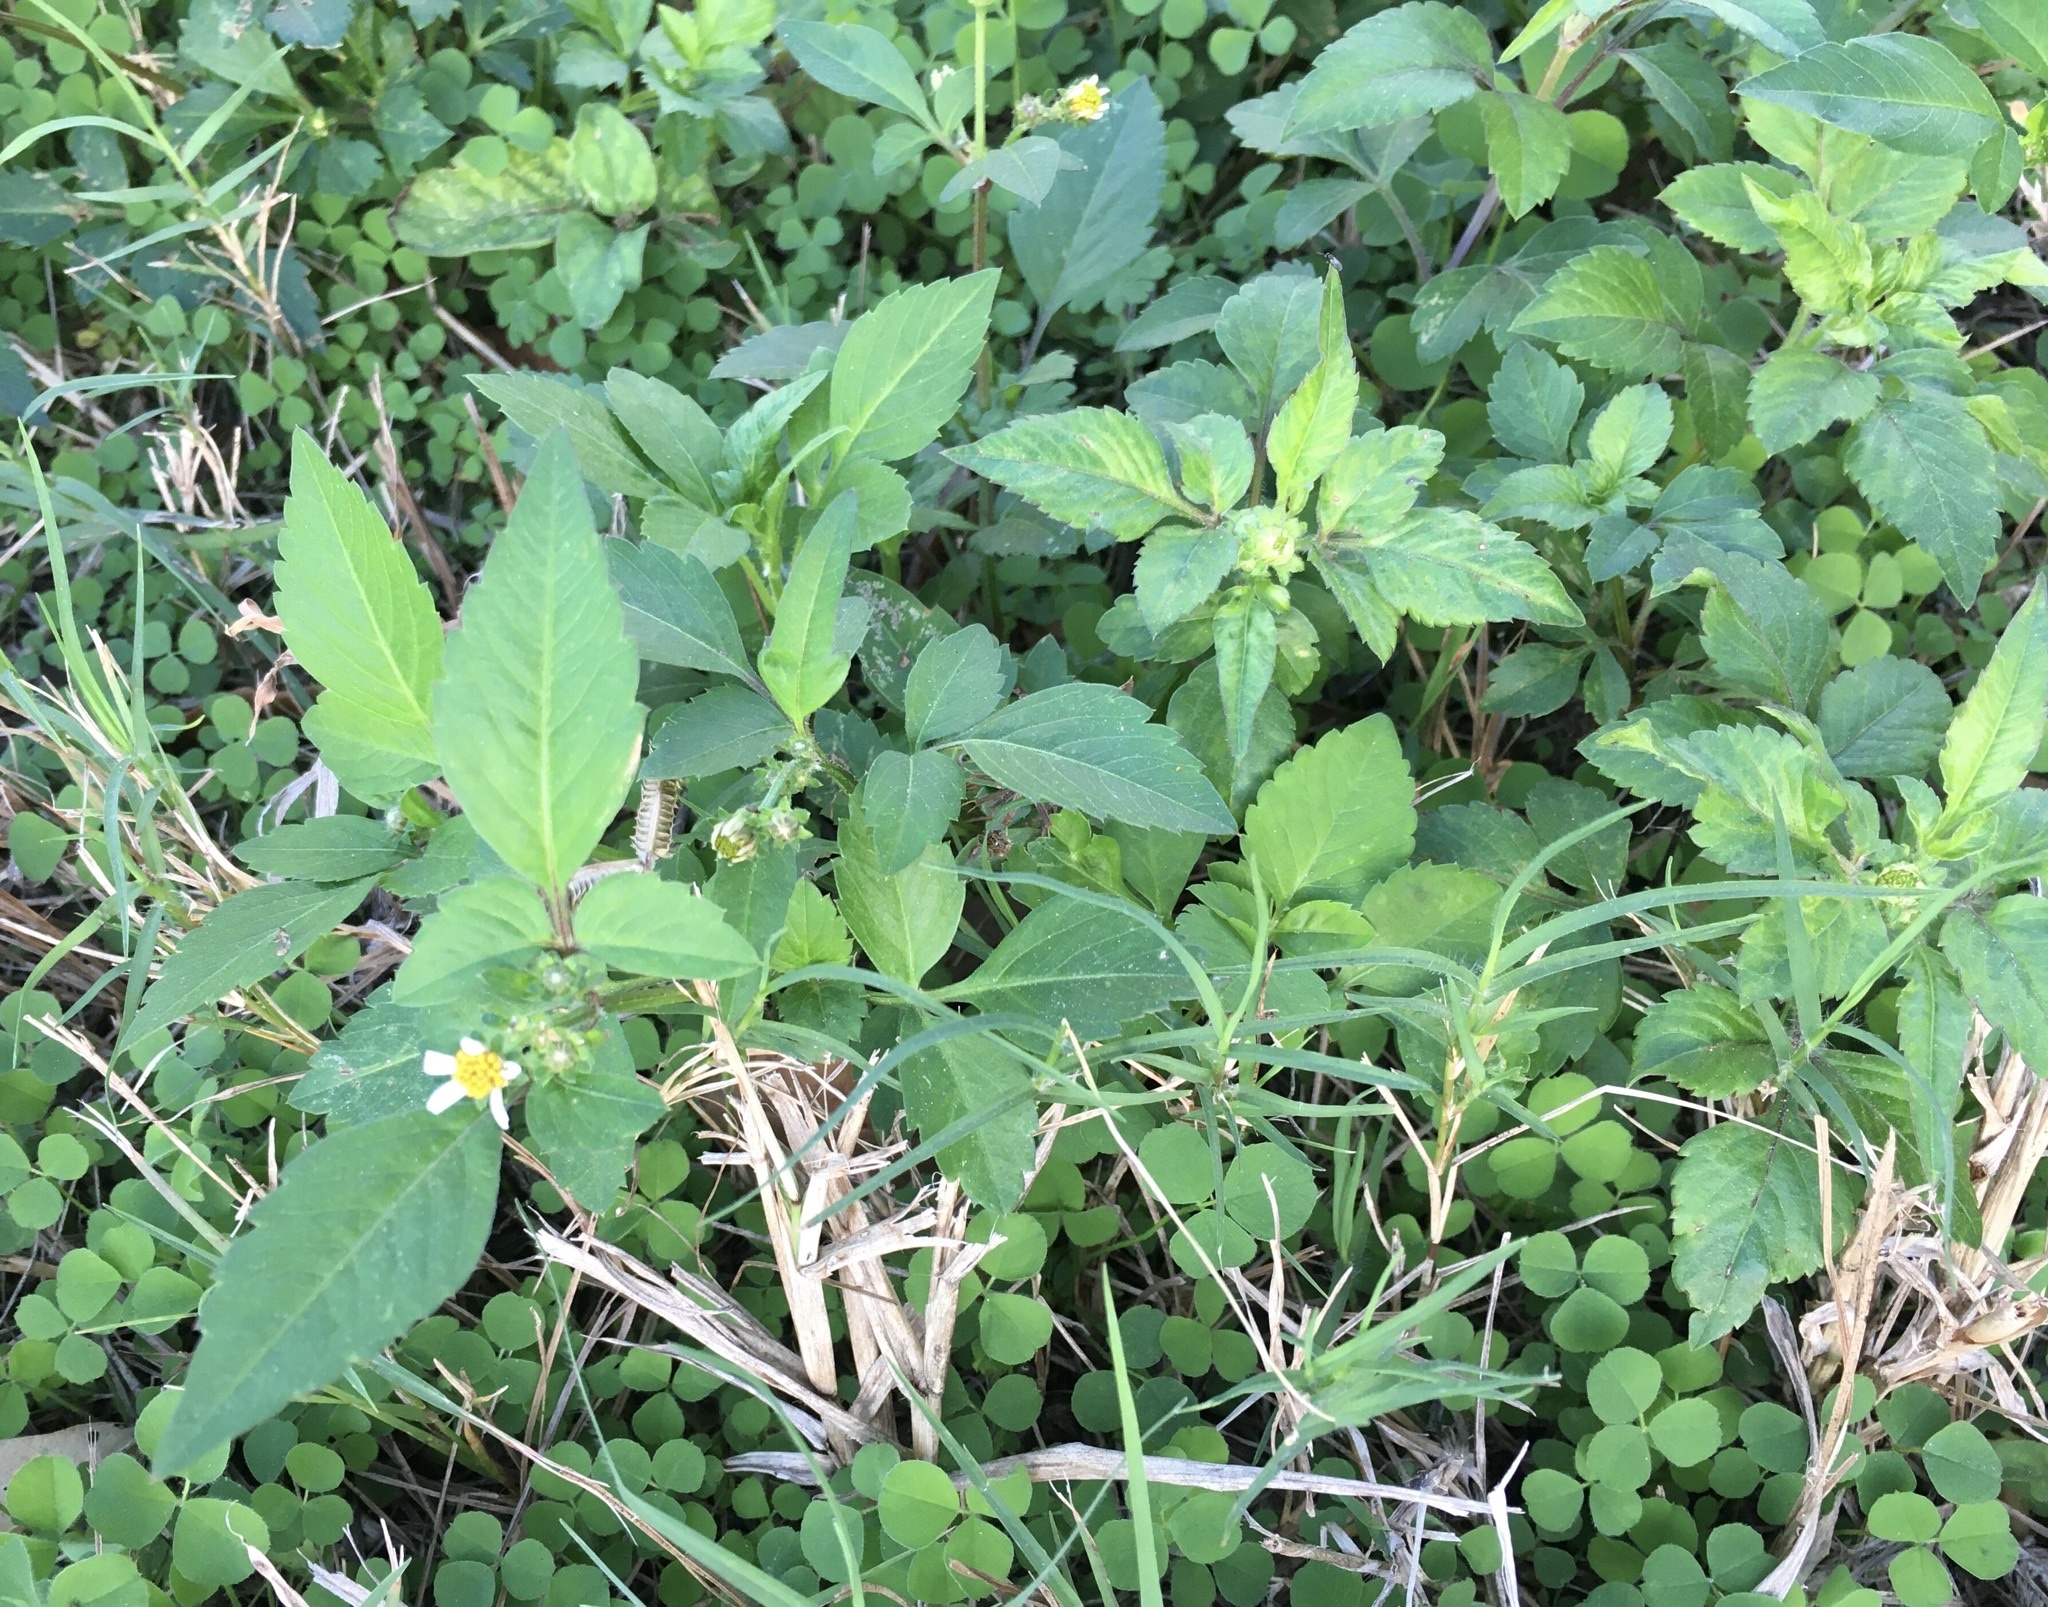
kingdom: Plantae
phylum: Tracheophyta
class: Magnoliopsida
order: Asterales
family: Asteraceae
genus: Bidens
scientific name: Bidens alba
